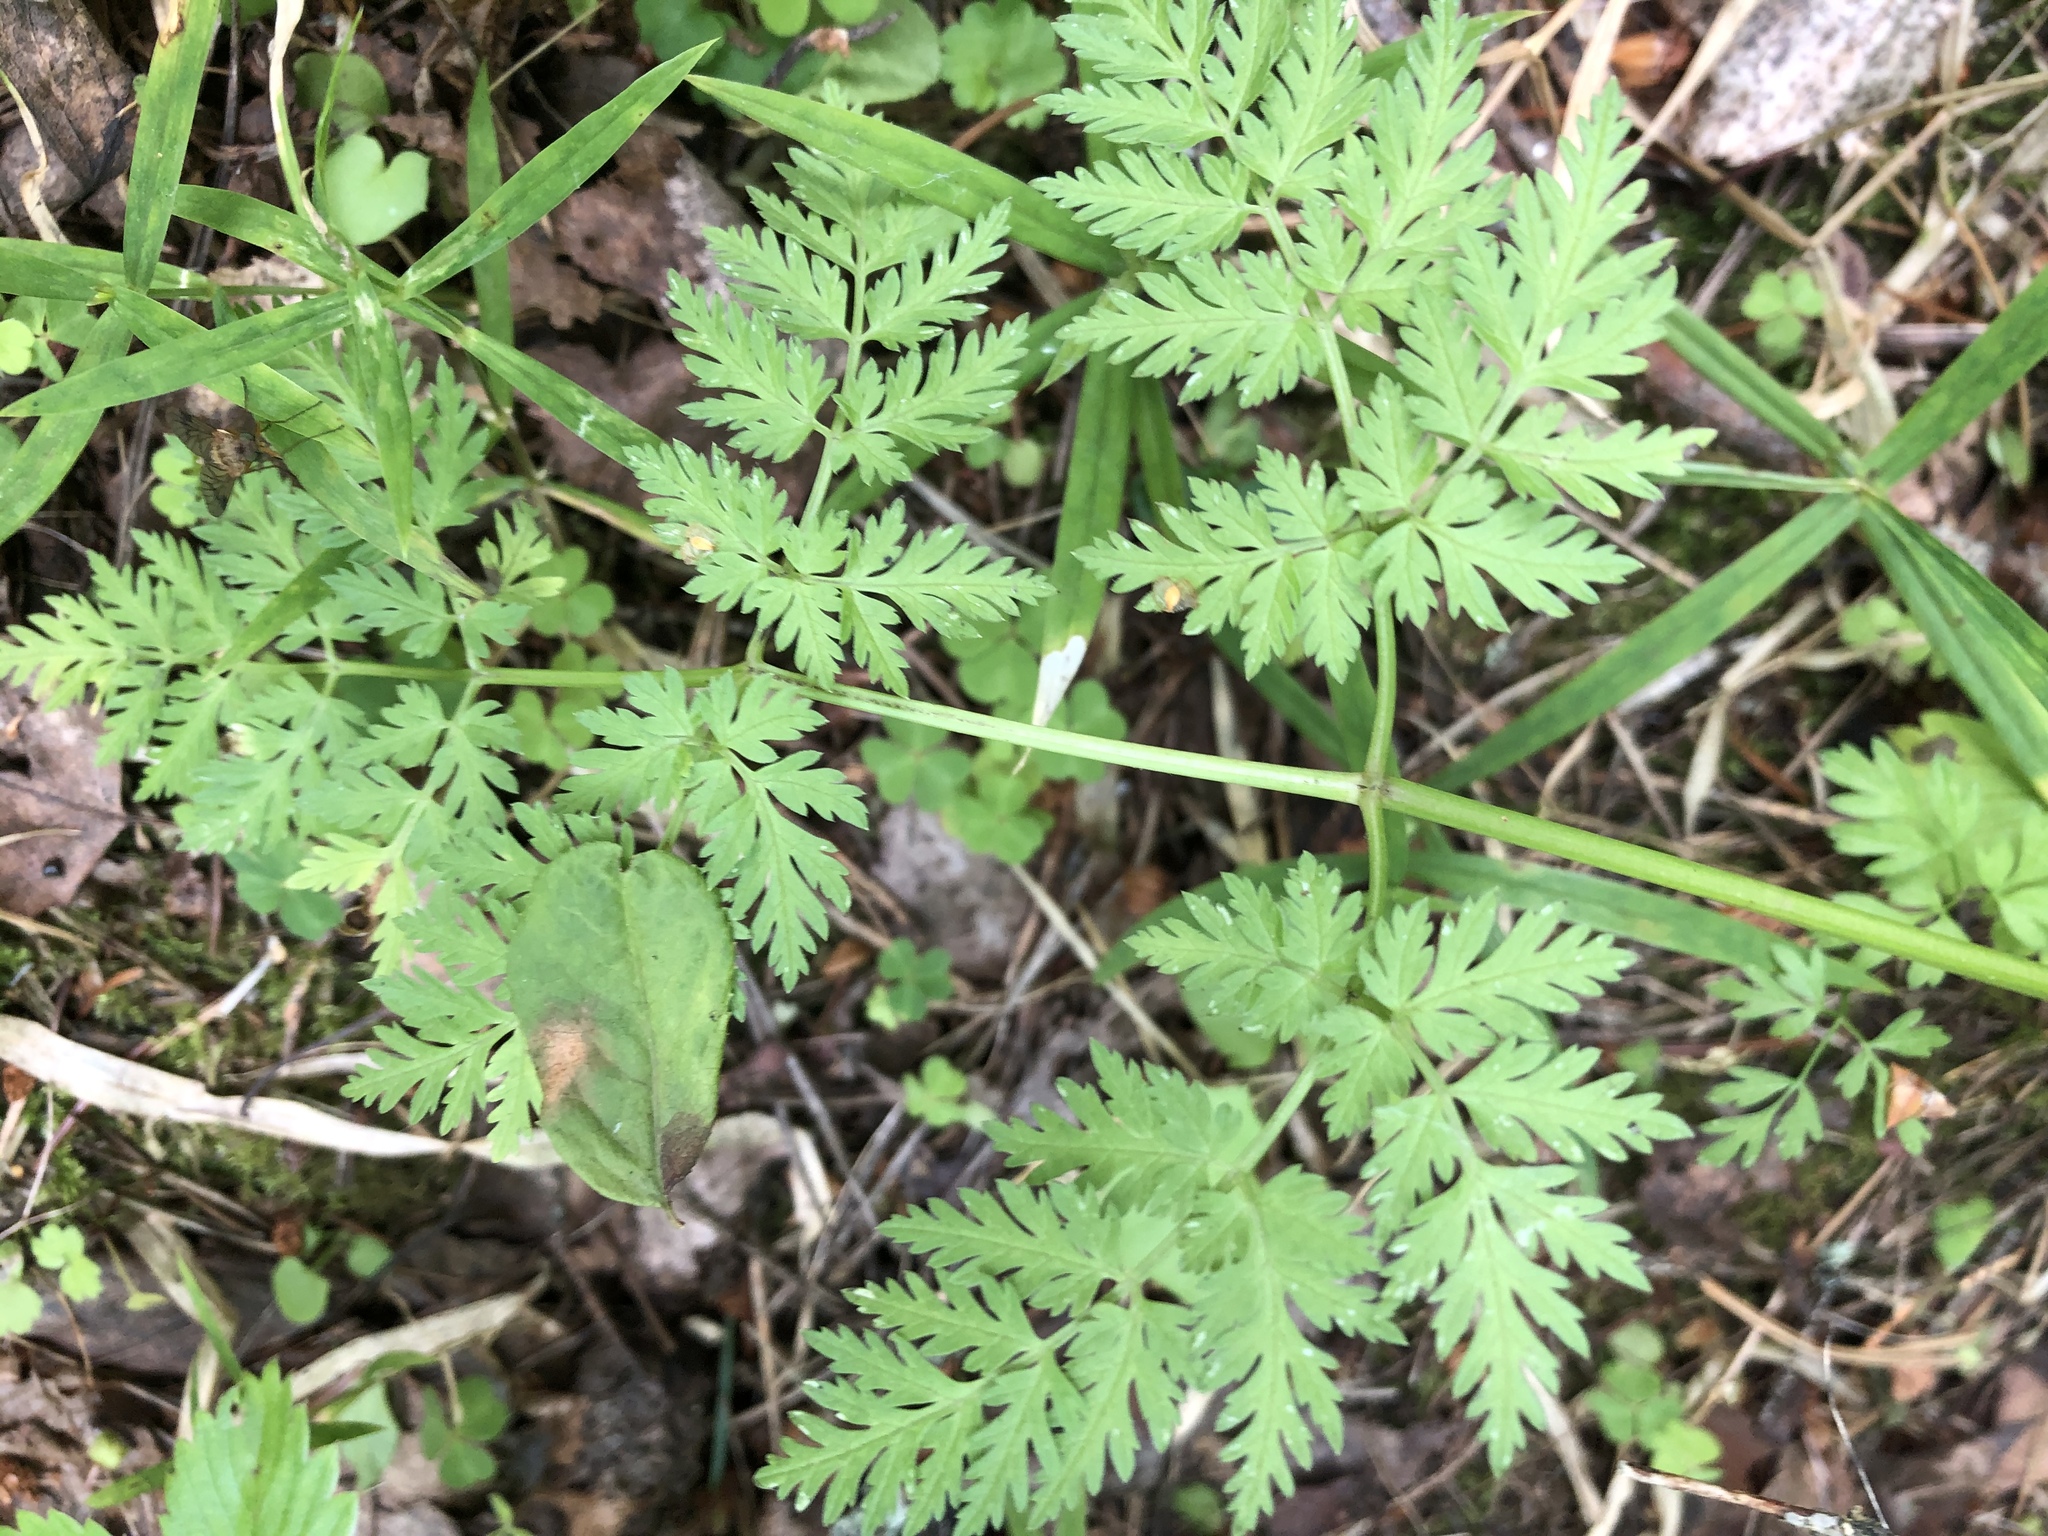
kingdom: Plantae
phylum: Tracheophyta
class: Magnoliopsida
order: Apiales
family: Apiaceae
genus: Anthriscus
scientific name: Anthriscus sylvestris
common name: Cow parsley
